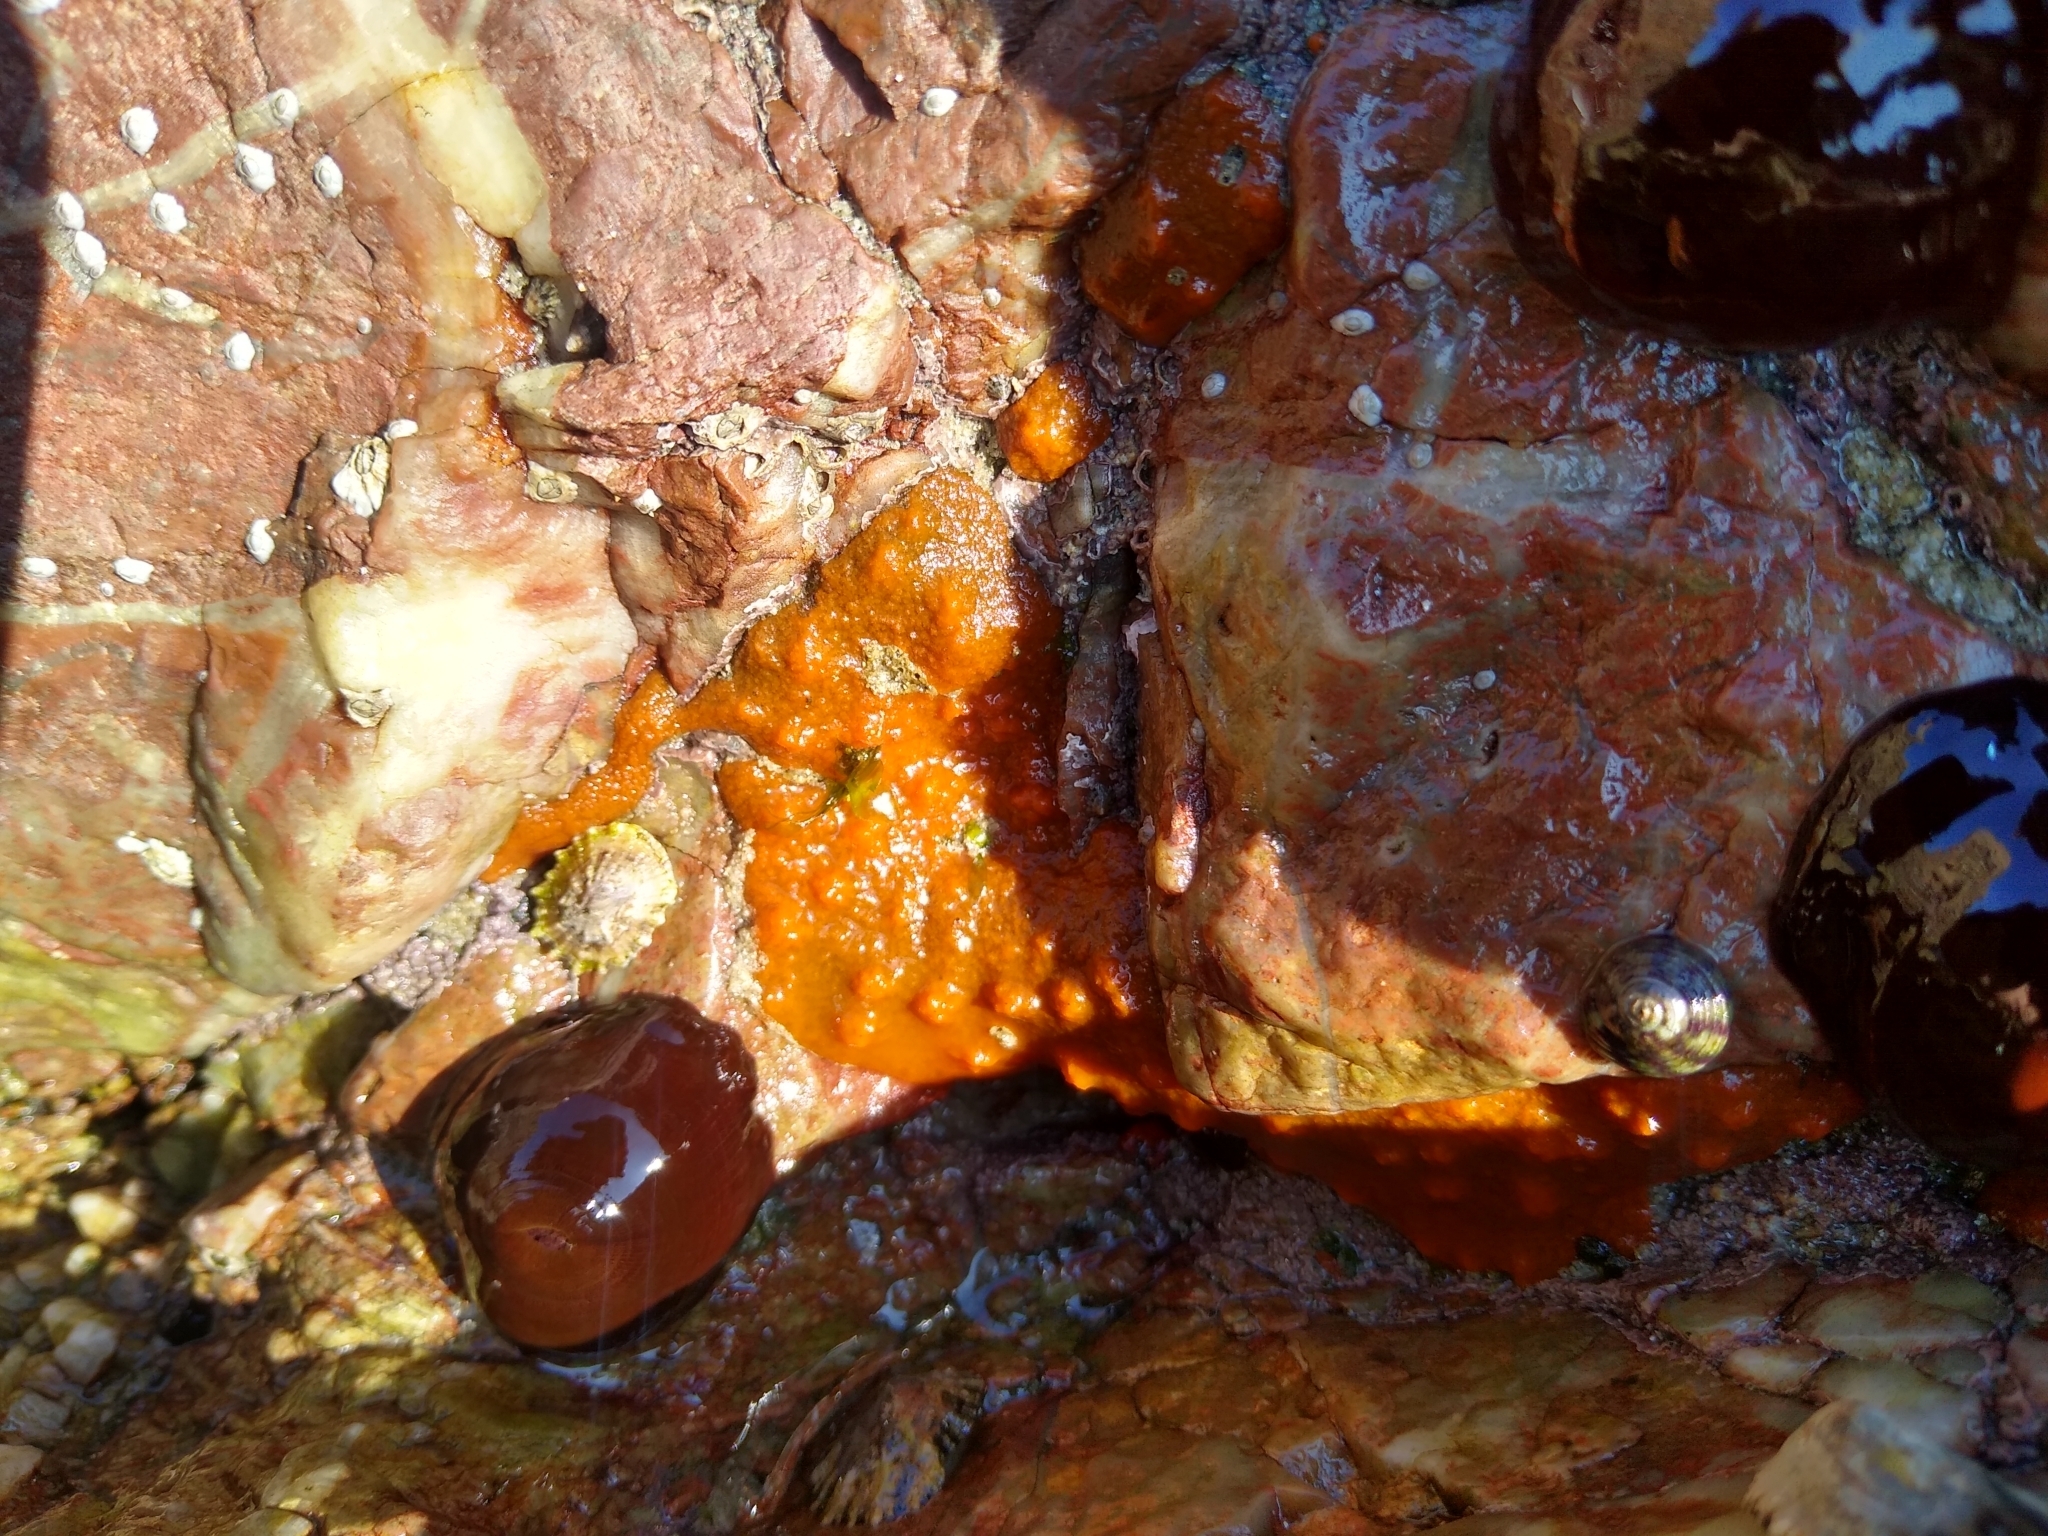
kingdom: Animalia
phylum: Porifera
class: Demospongiae
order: Suberitida
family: Halichondriidae
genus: Hymeniacidon
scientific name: Hymeniacidon perlevis
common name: Crumb-of-bread sponge
